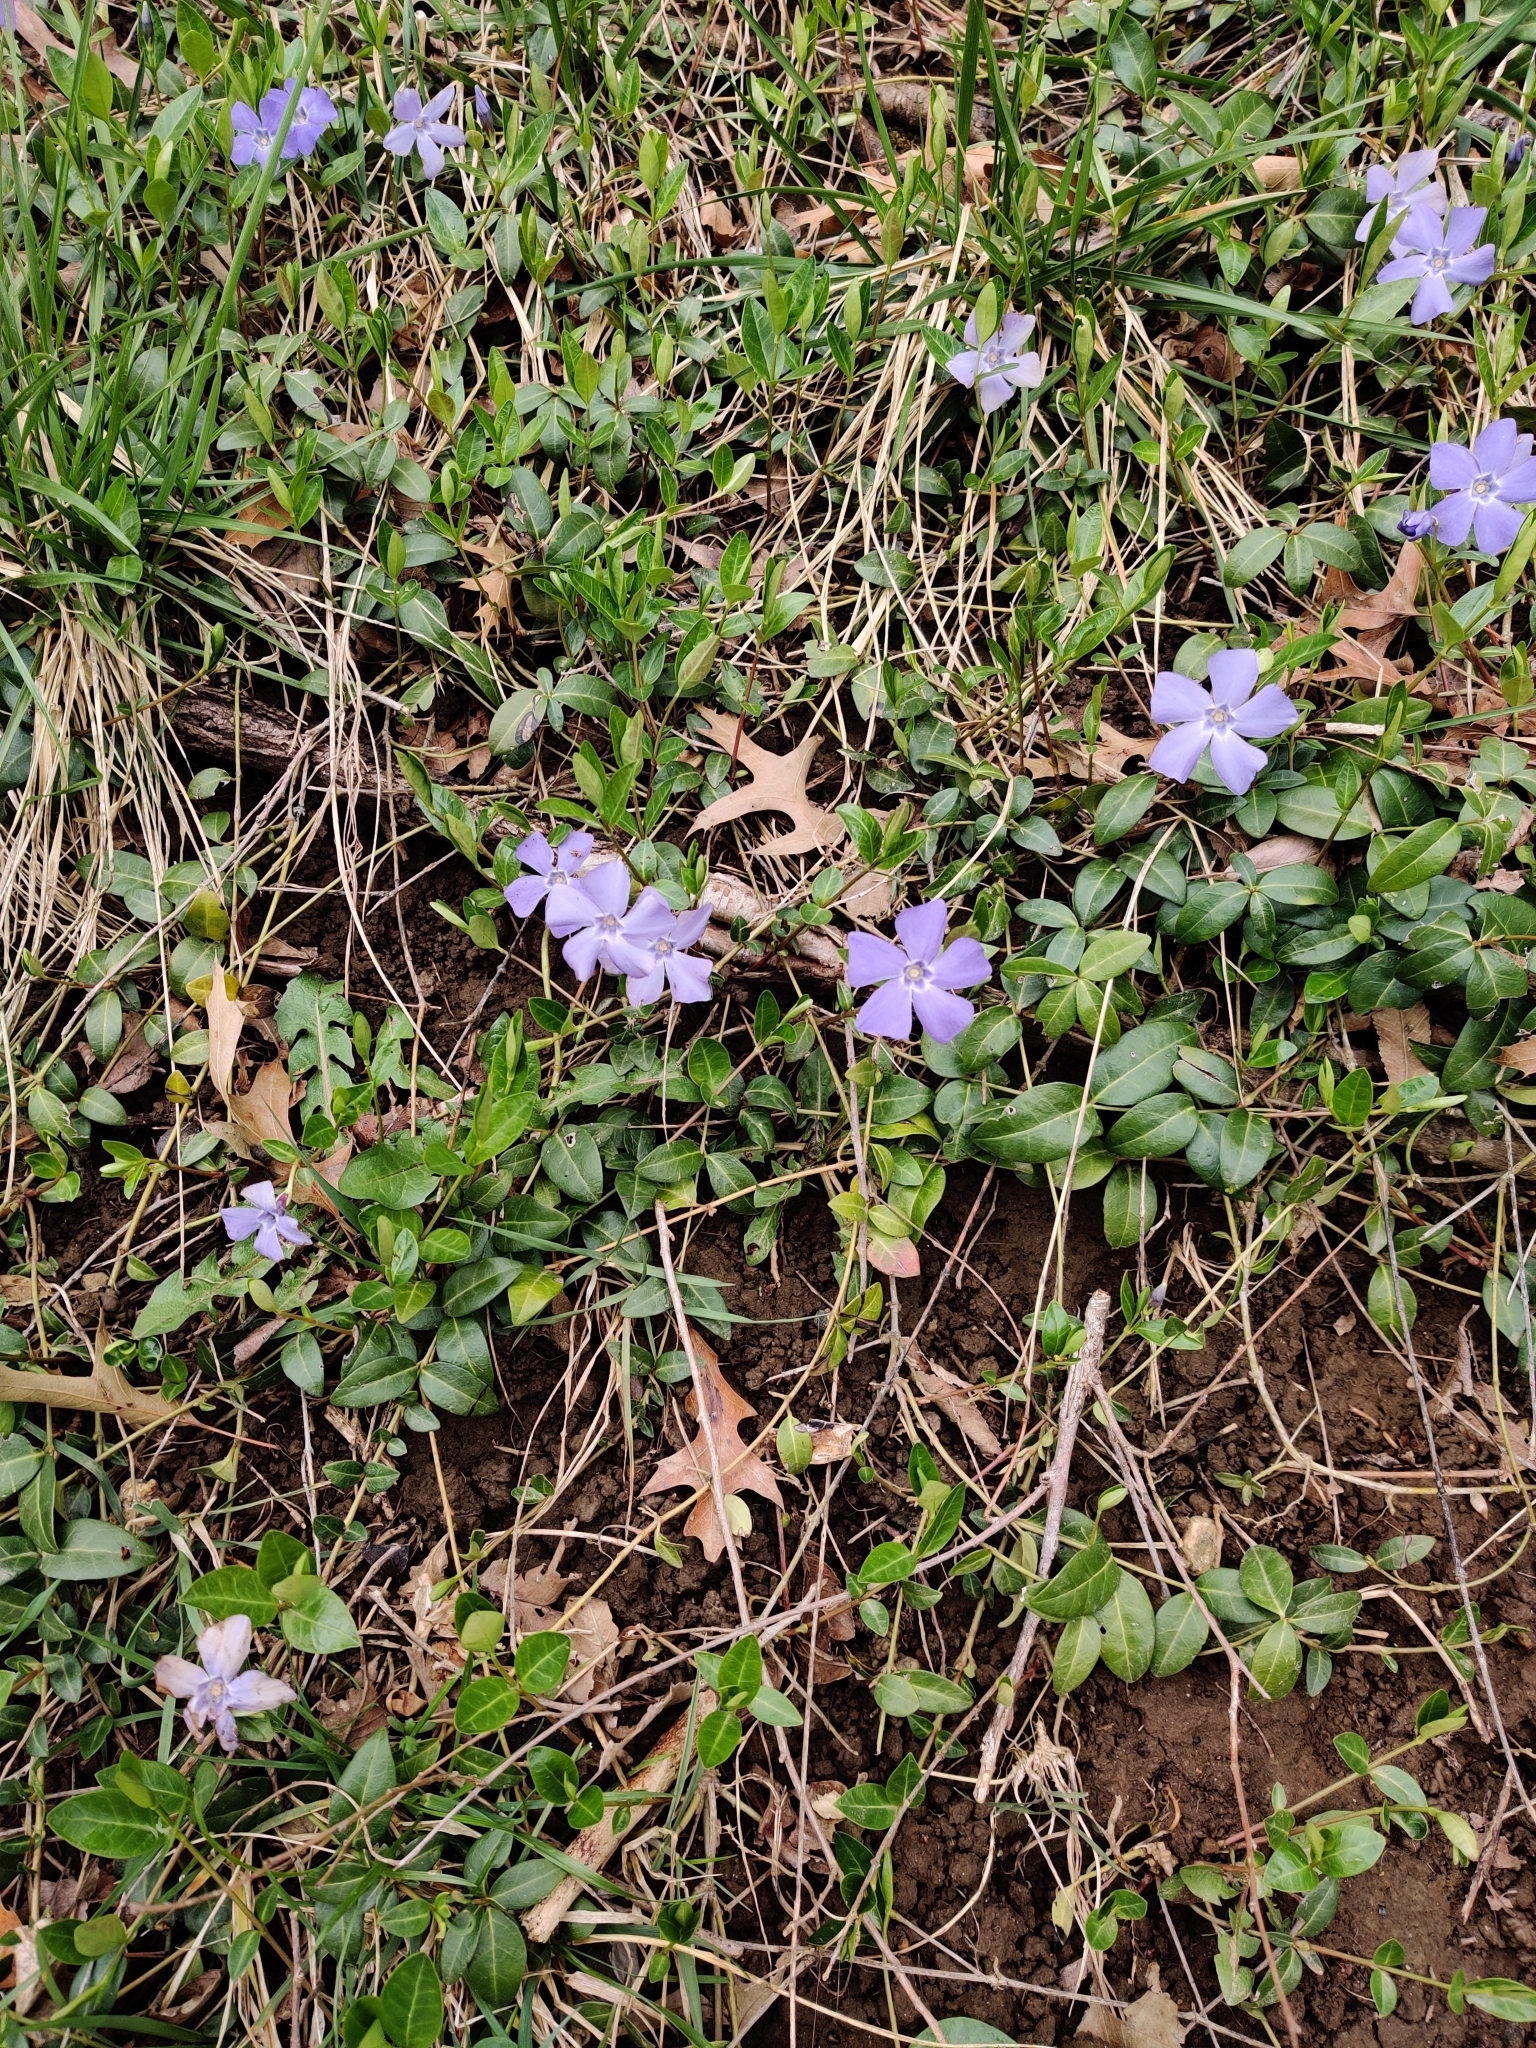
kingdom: Plantae
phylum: Tracheophyta
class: Magnoliopsida
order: Gentianales
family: Apocynaceae
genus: Vinca
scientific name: Vinca minor
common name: Lesser periwinkle
